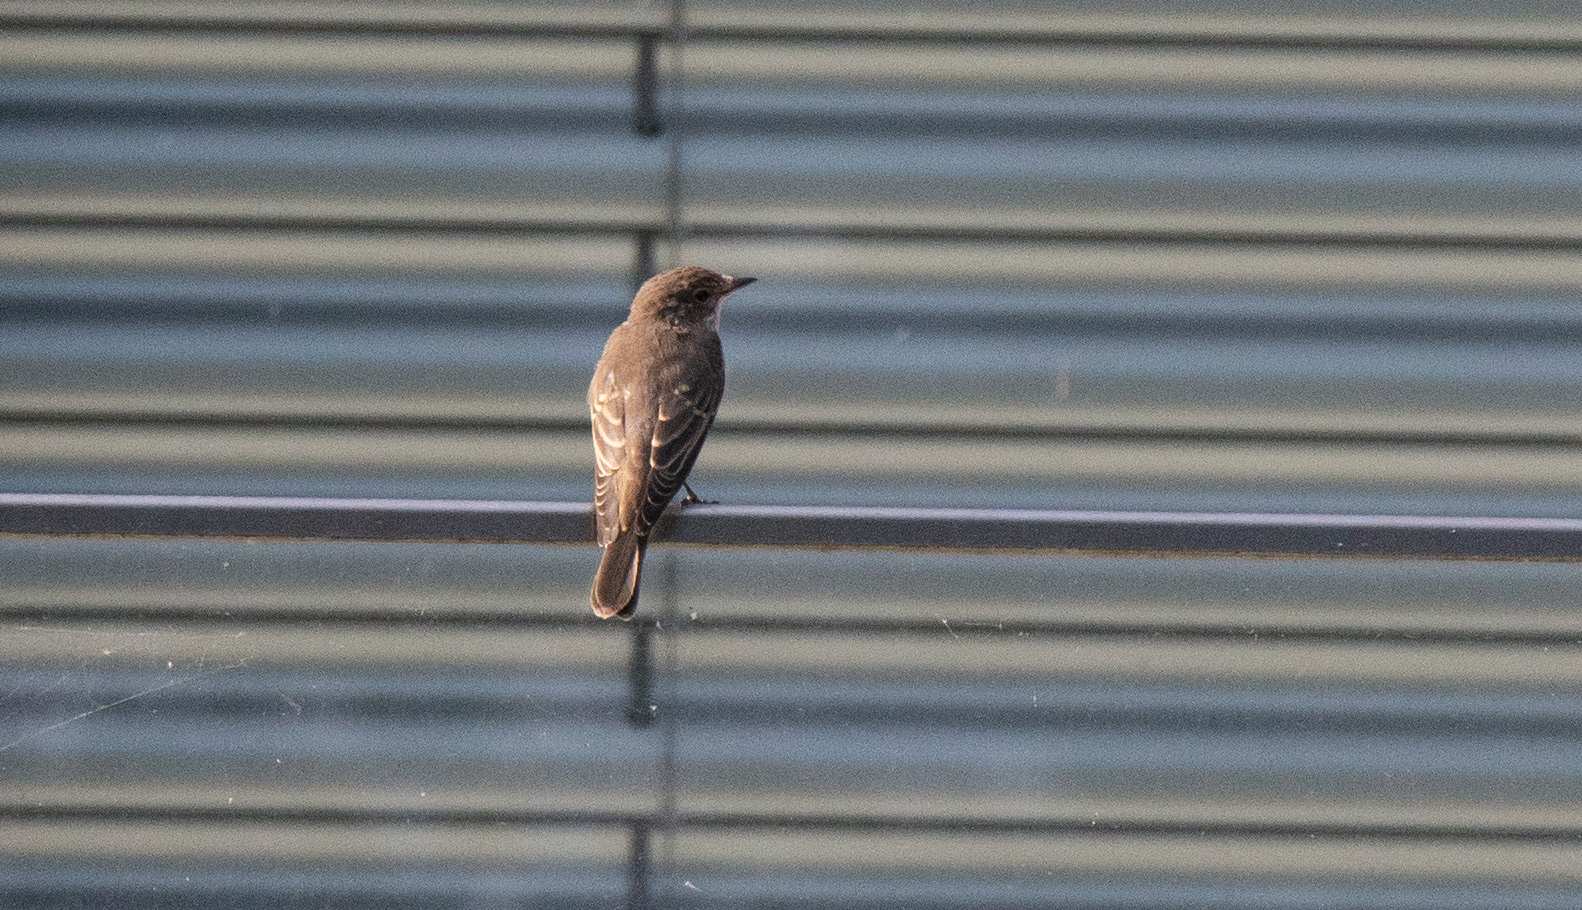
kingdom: Animalia
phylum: Chordata
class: Aves
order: Passeriformes
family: Muscicapidae
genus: Muscicapa
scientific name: Muscicapa striata
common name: Spotted flycatcher
